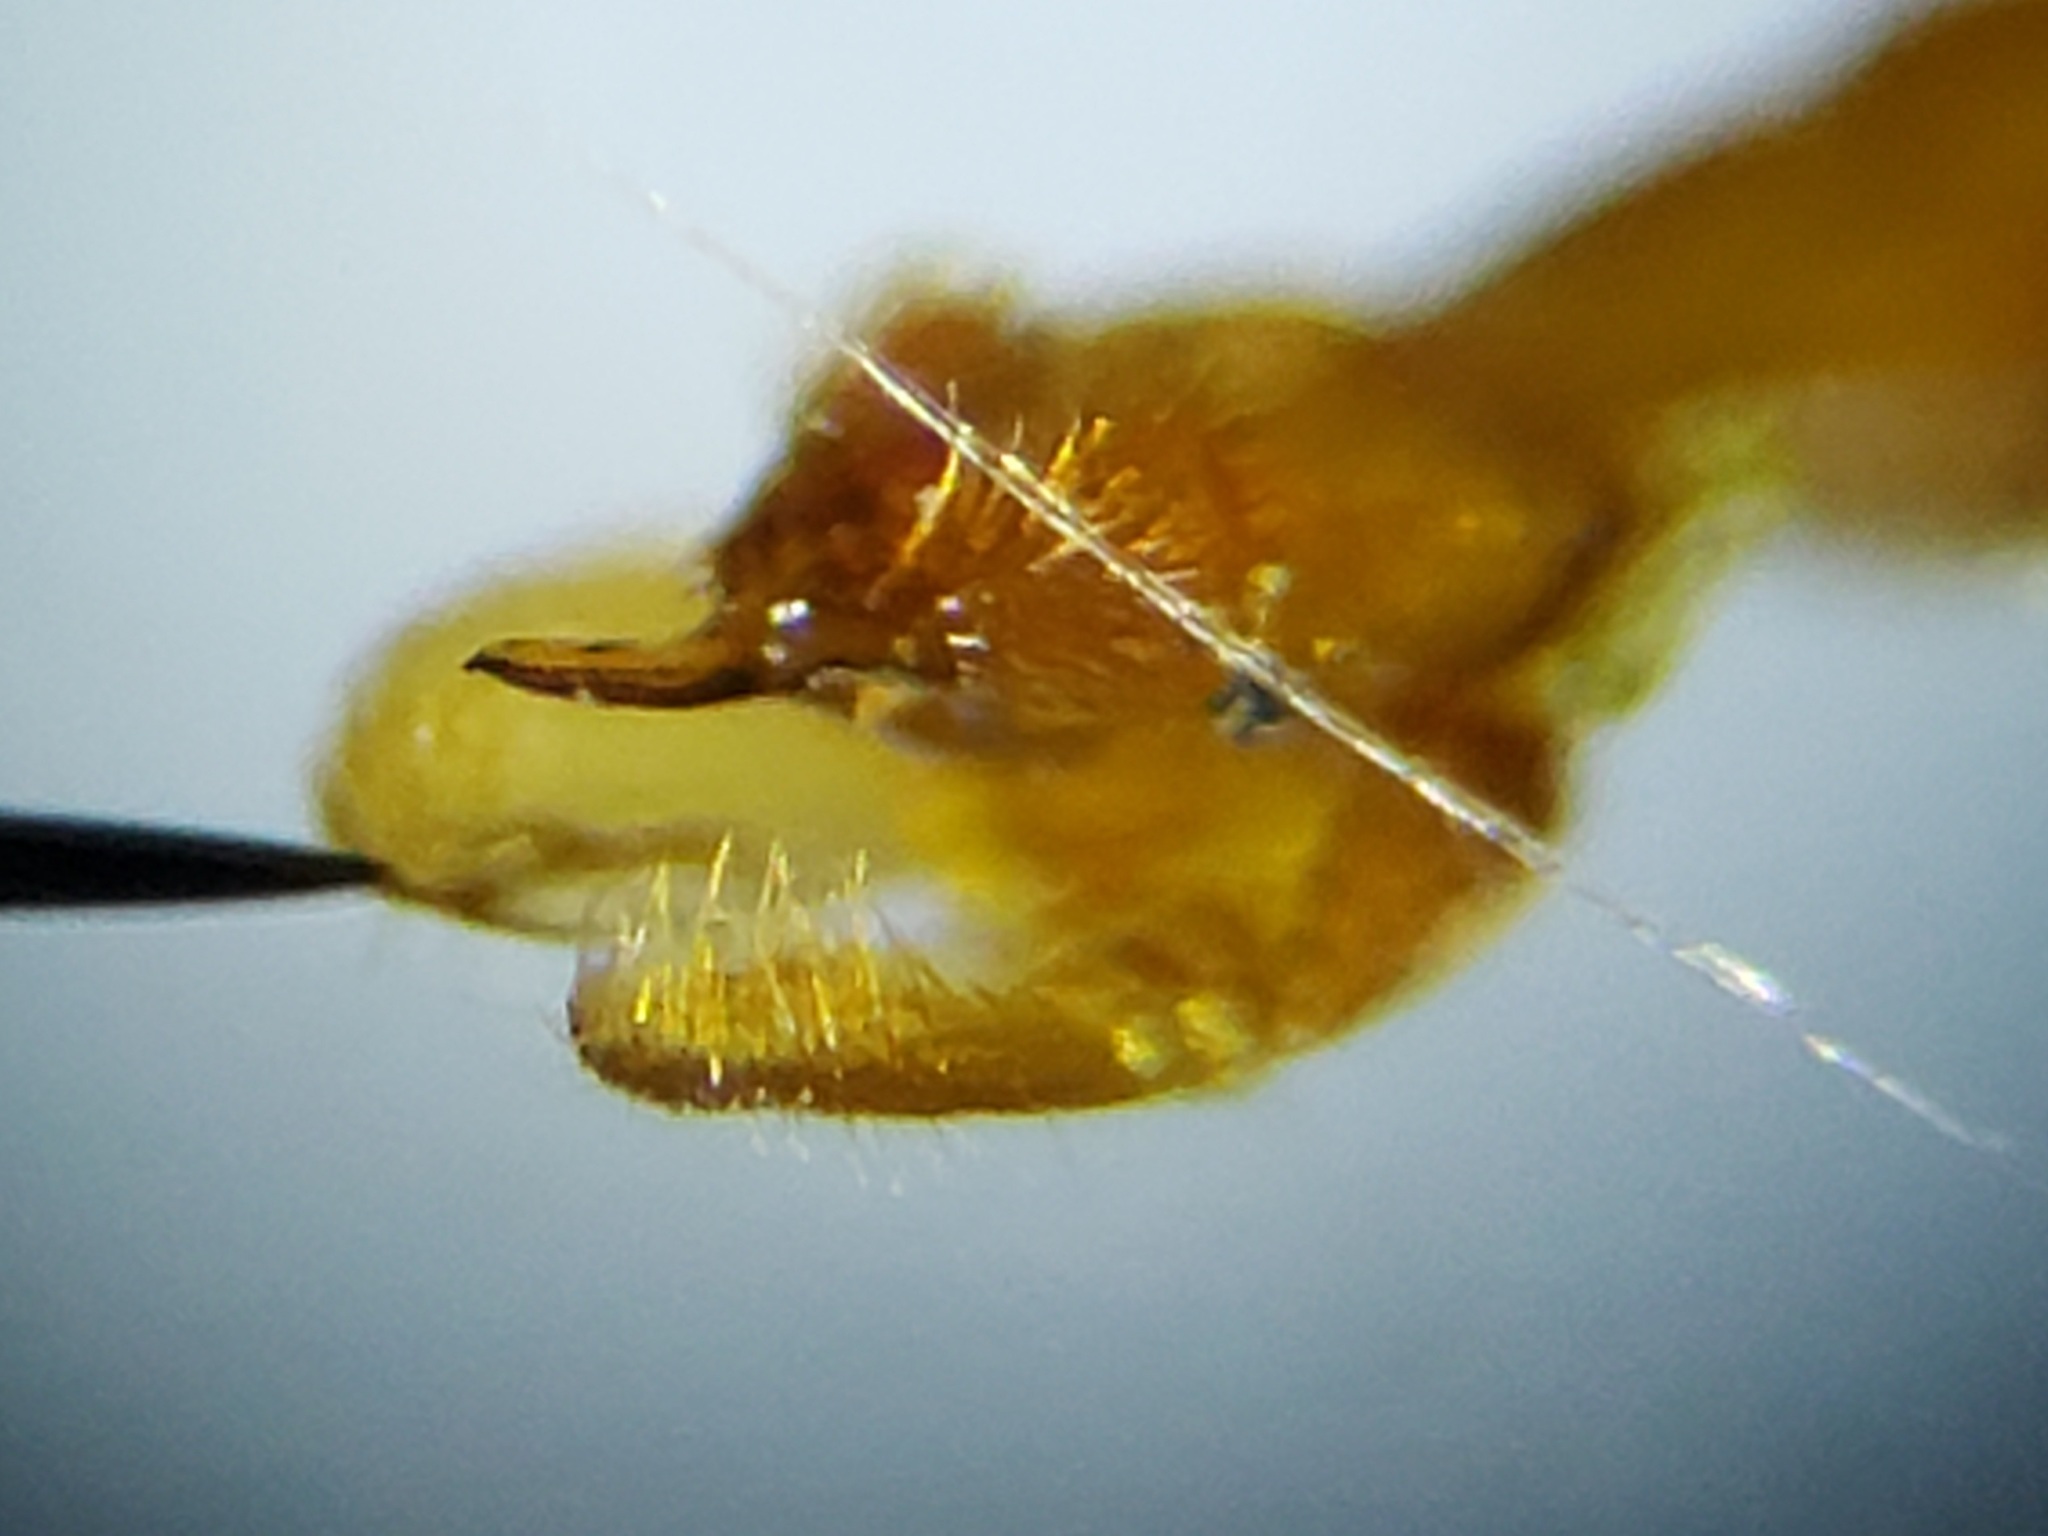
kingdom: Animalia
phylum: Arthropoda
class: Insecta
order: Diptera
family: Syrphidae
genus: Toxomerus
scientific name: Toxomerus floralis
